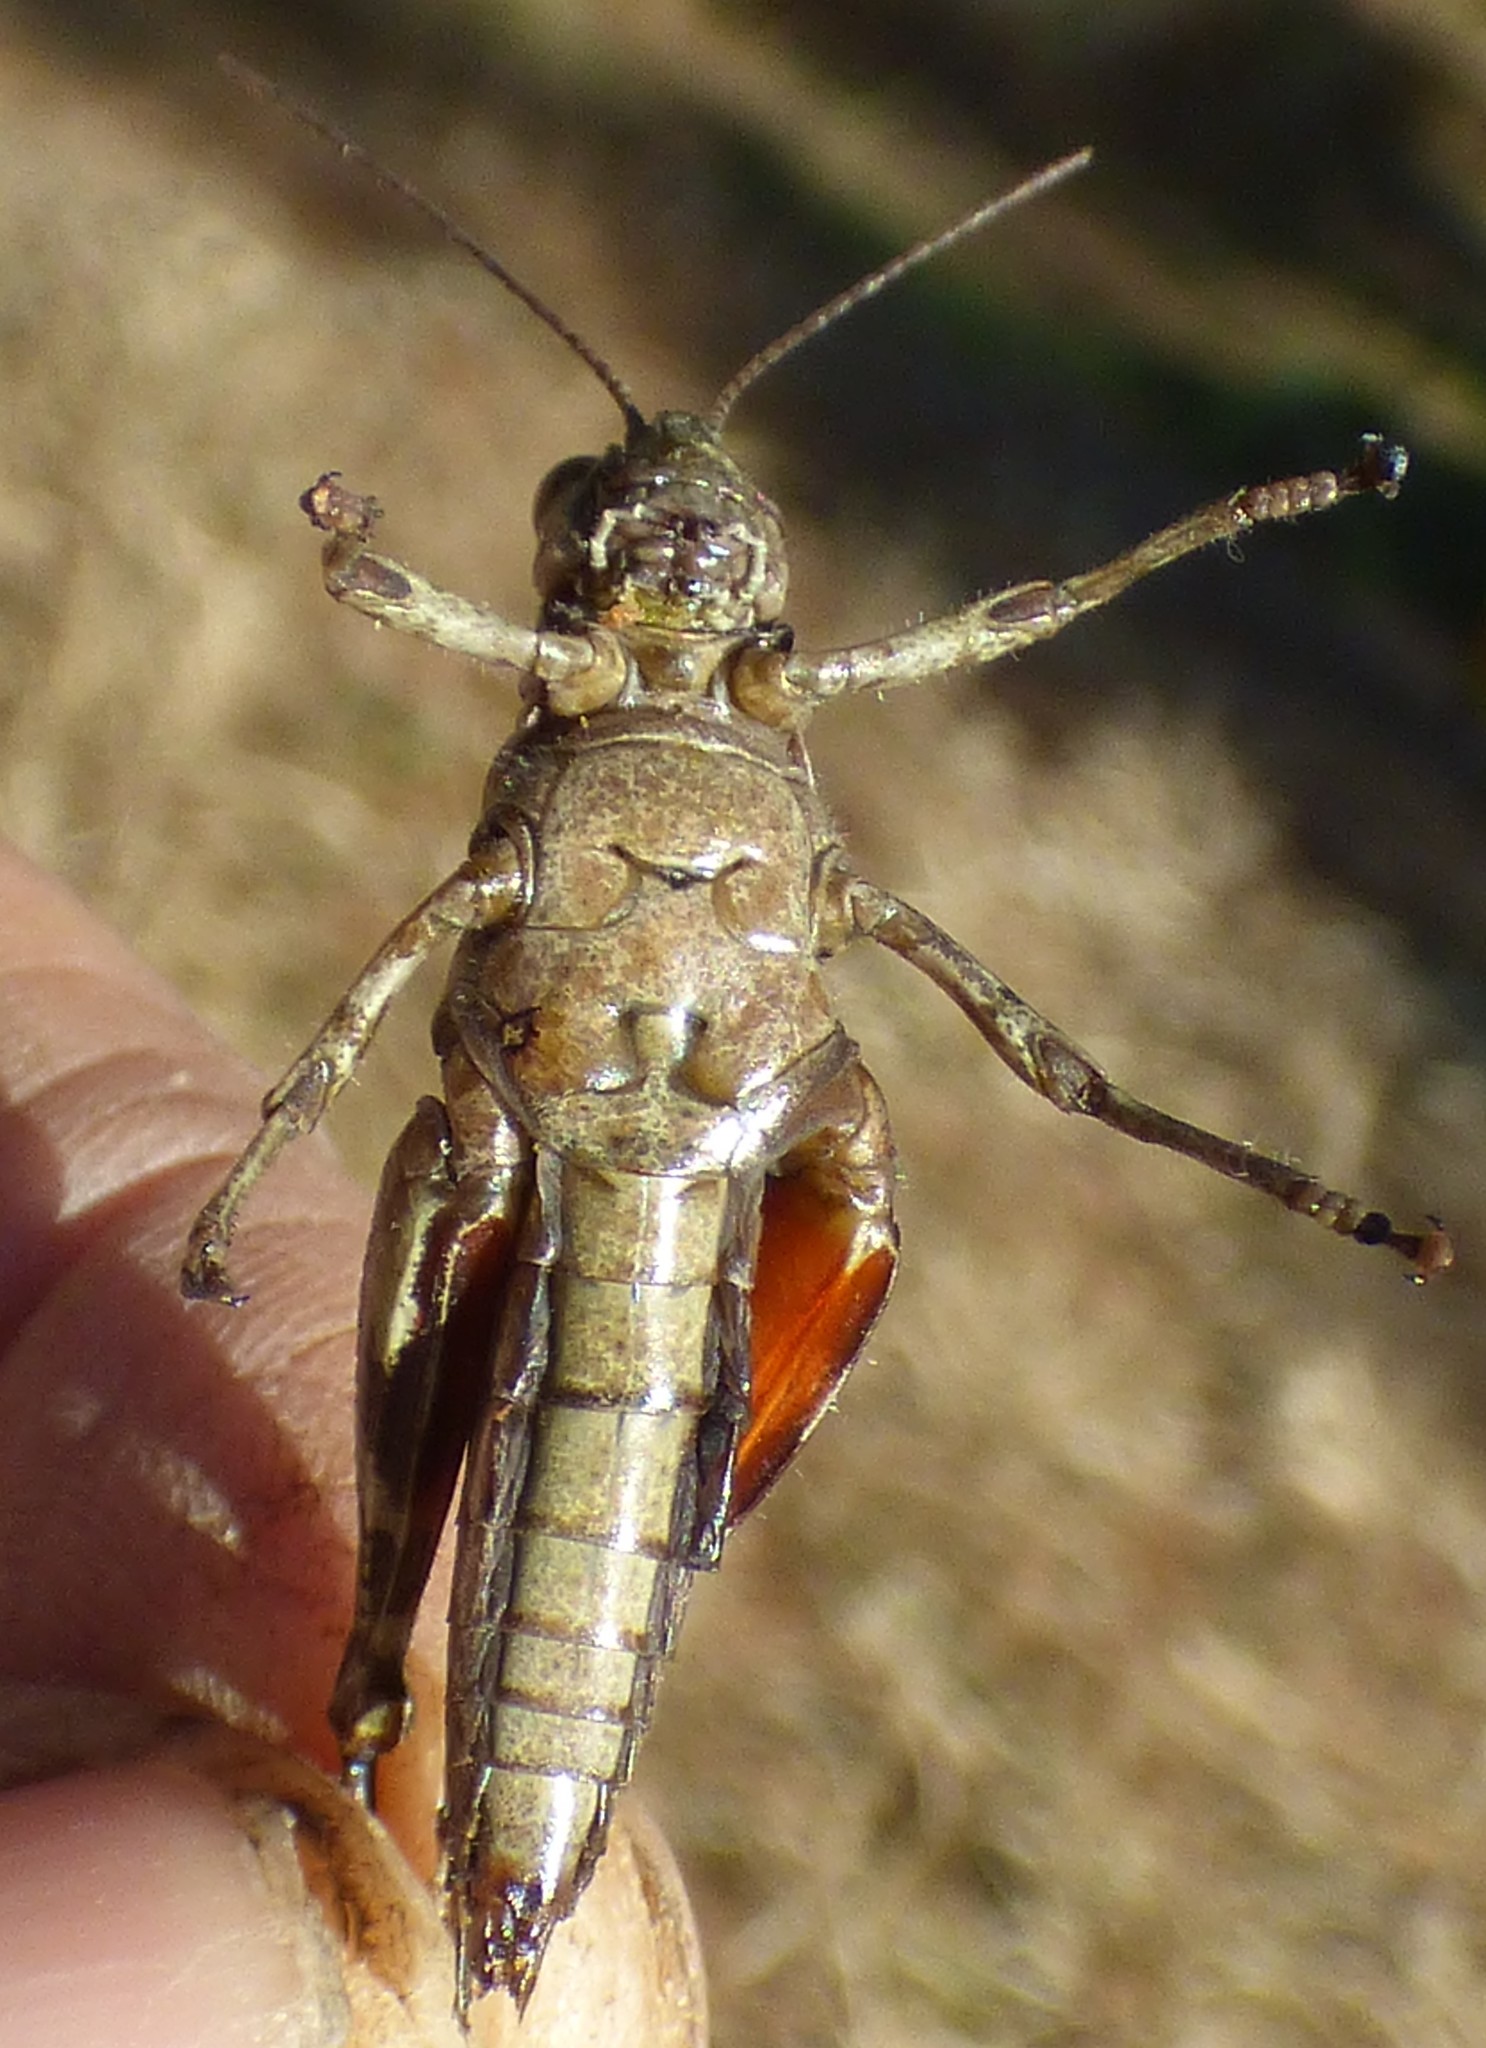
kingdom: Animalia
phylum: Arthropoda
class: Insecta
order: Orthoptera
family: Acrididae
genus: Melanoplus
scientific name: Melanoplus punctulatus
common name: Pine-tree spur-throat grasshopper
